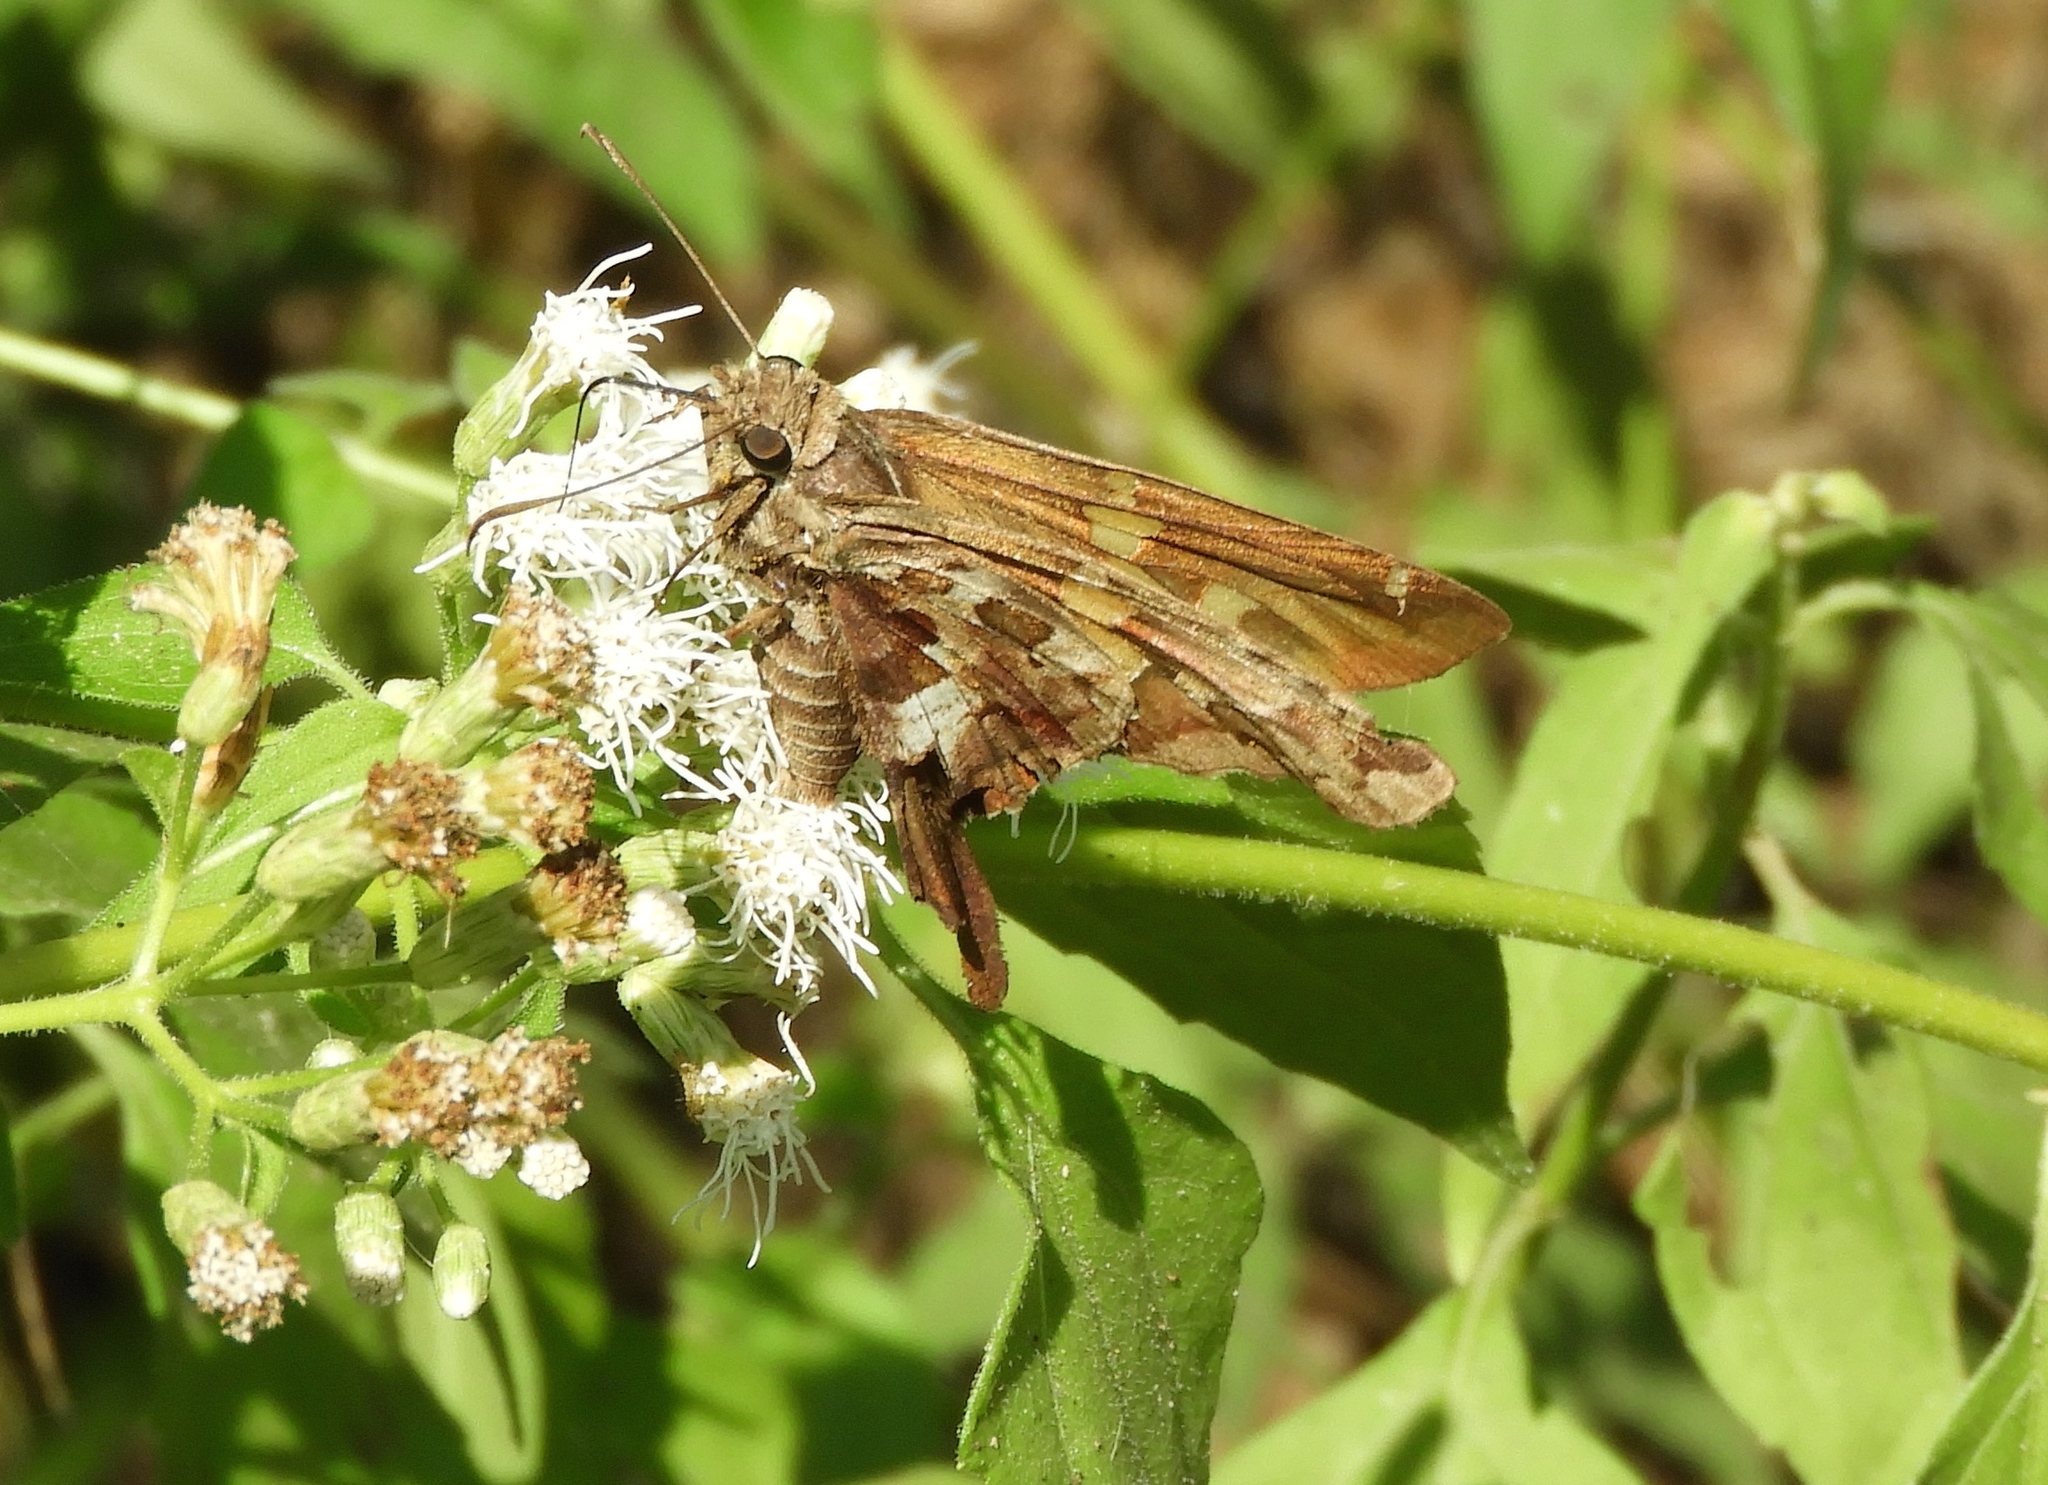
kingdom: Animalia
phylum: Arthropoda
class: Insecta
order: Lepidoptera
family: Hesperiidae
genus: Chioides
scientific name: Chioides zilpa
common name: Zilpa longtail
